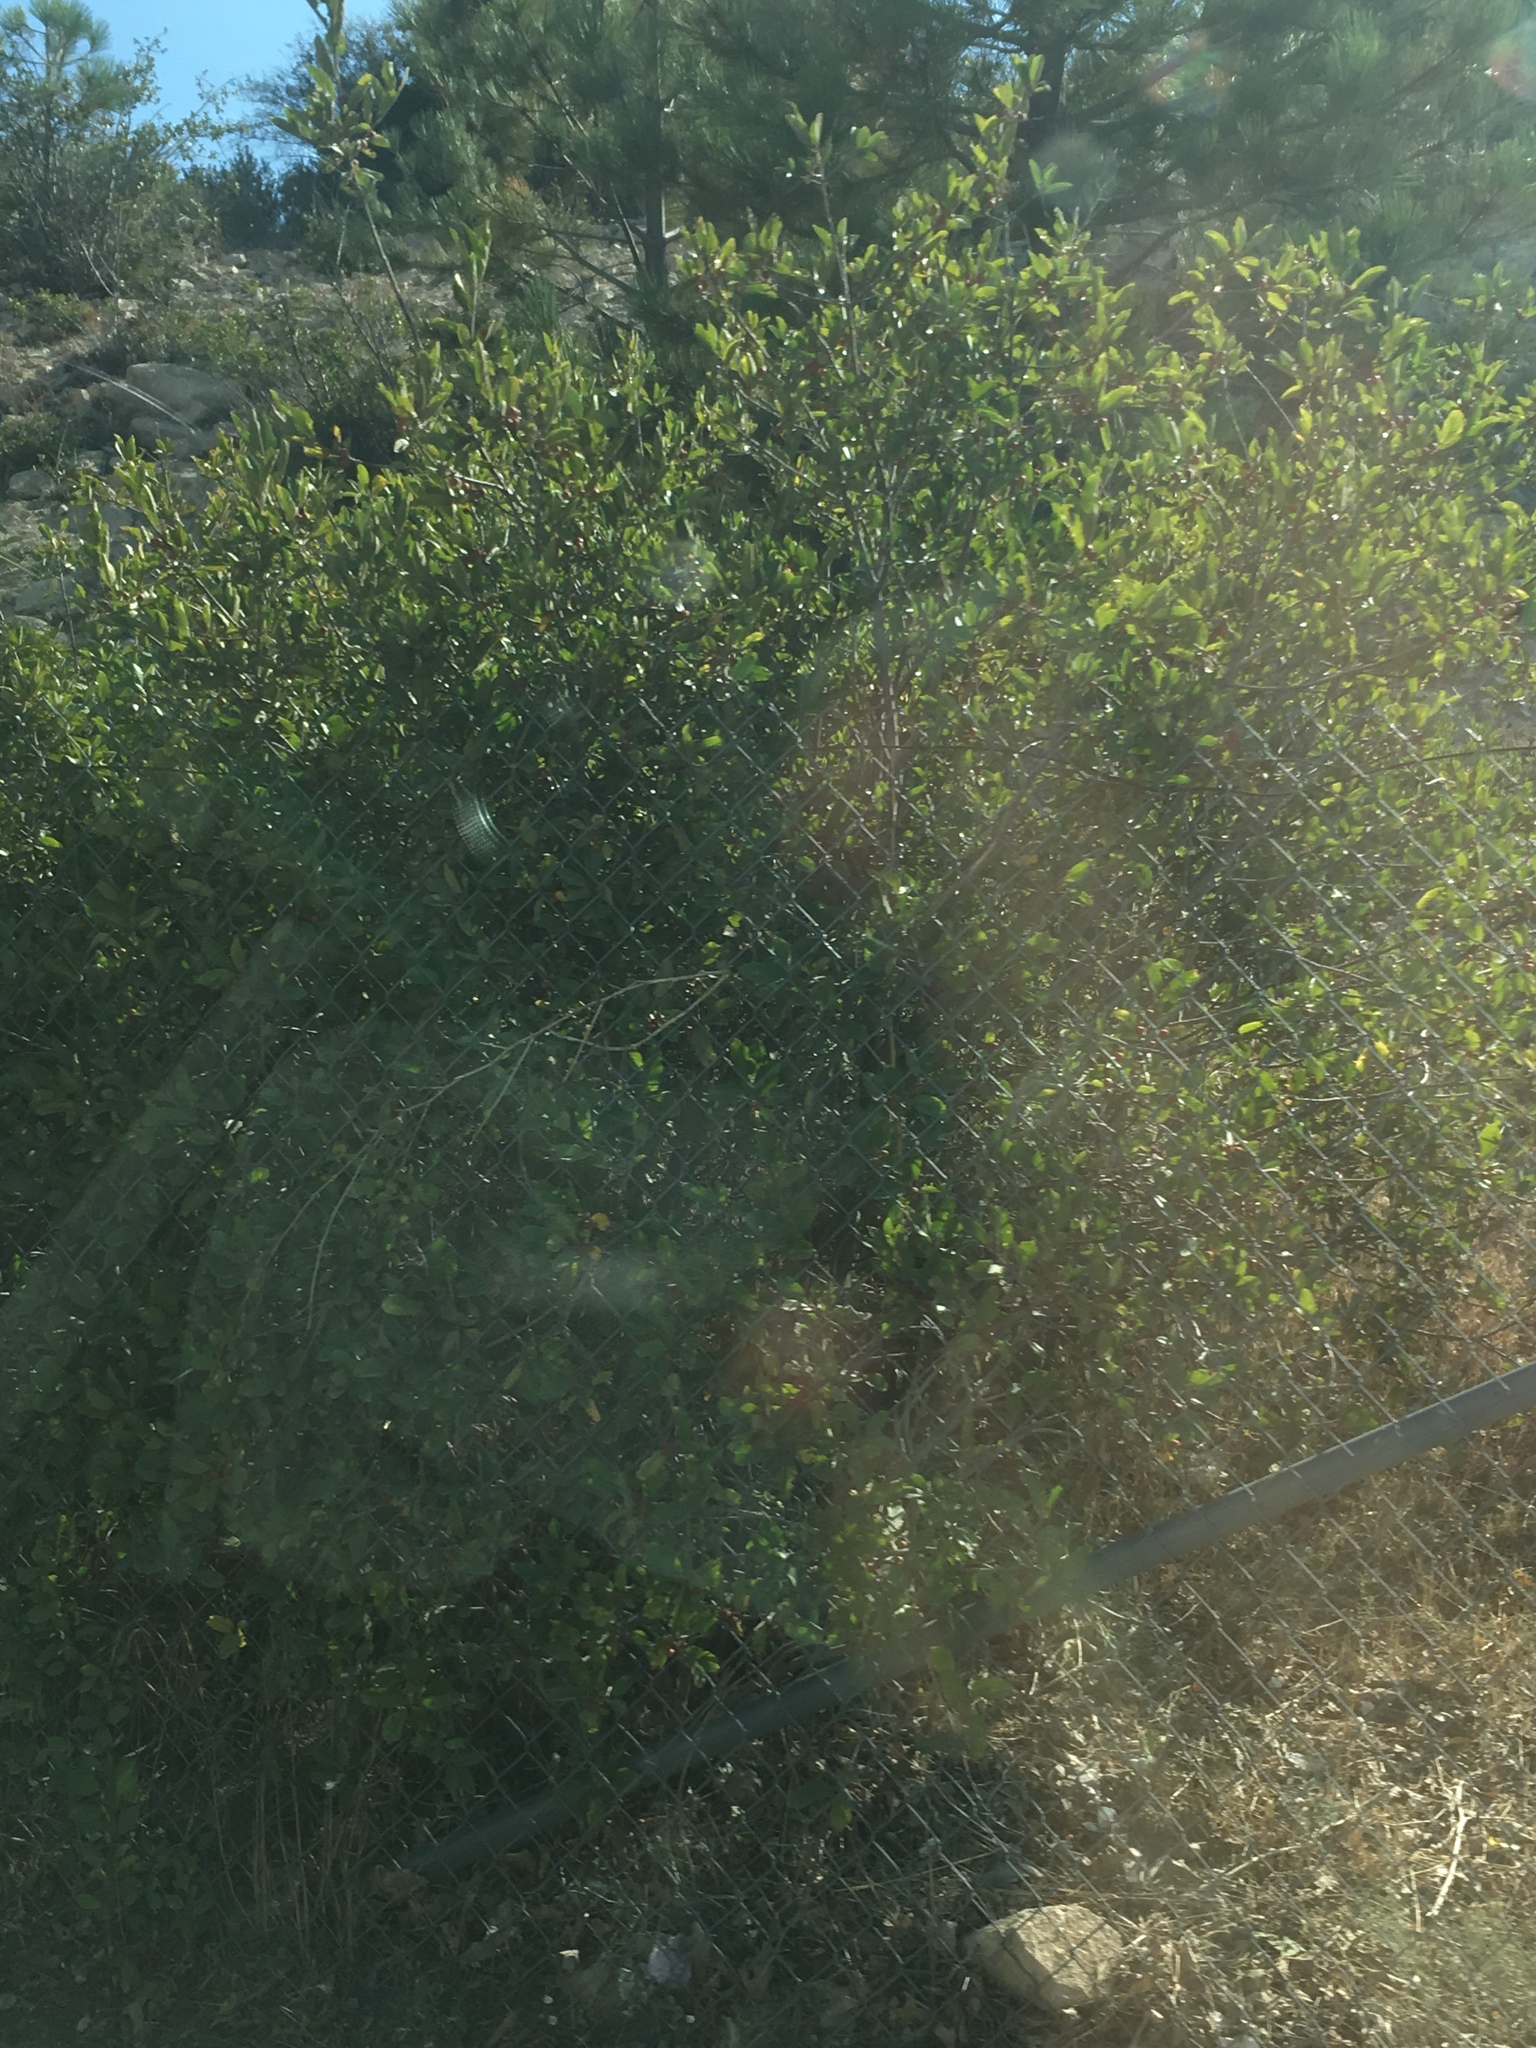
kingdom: Plantae
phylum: Tracheophyta
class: Magnoliopsida
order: Rosales
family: Rhamnaceae
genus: Frangula
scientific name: Frangula californica
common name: California buckthorn
